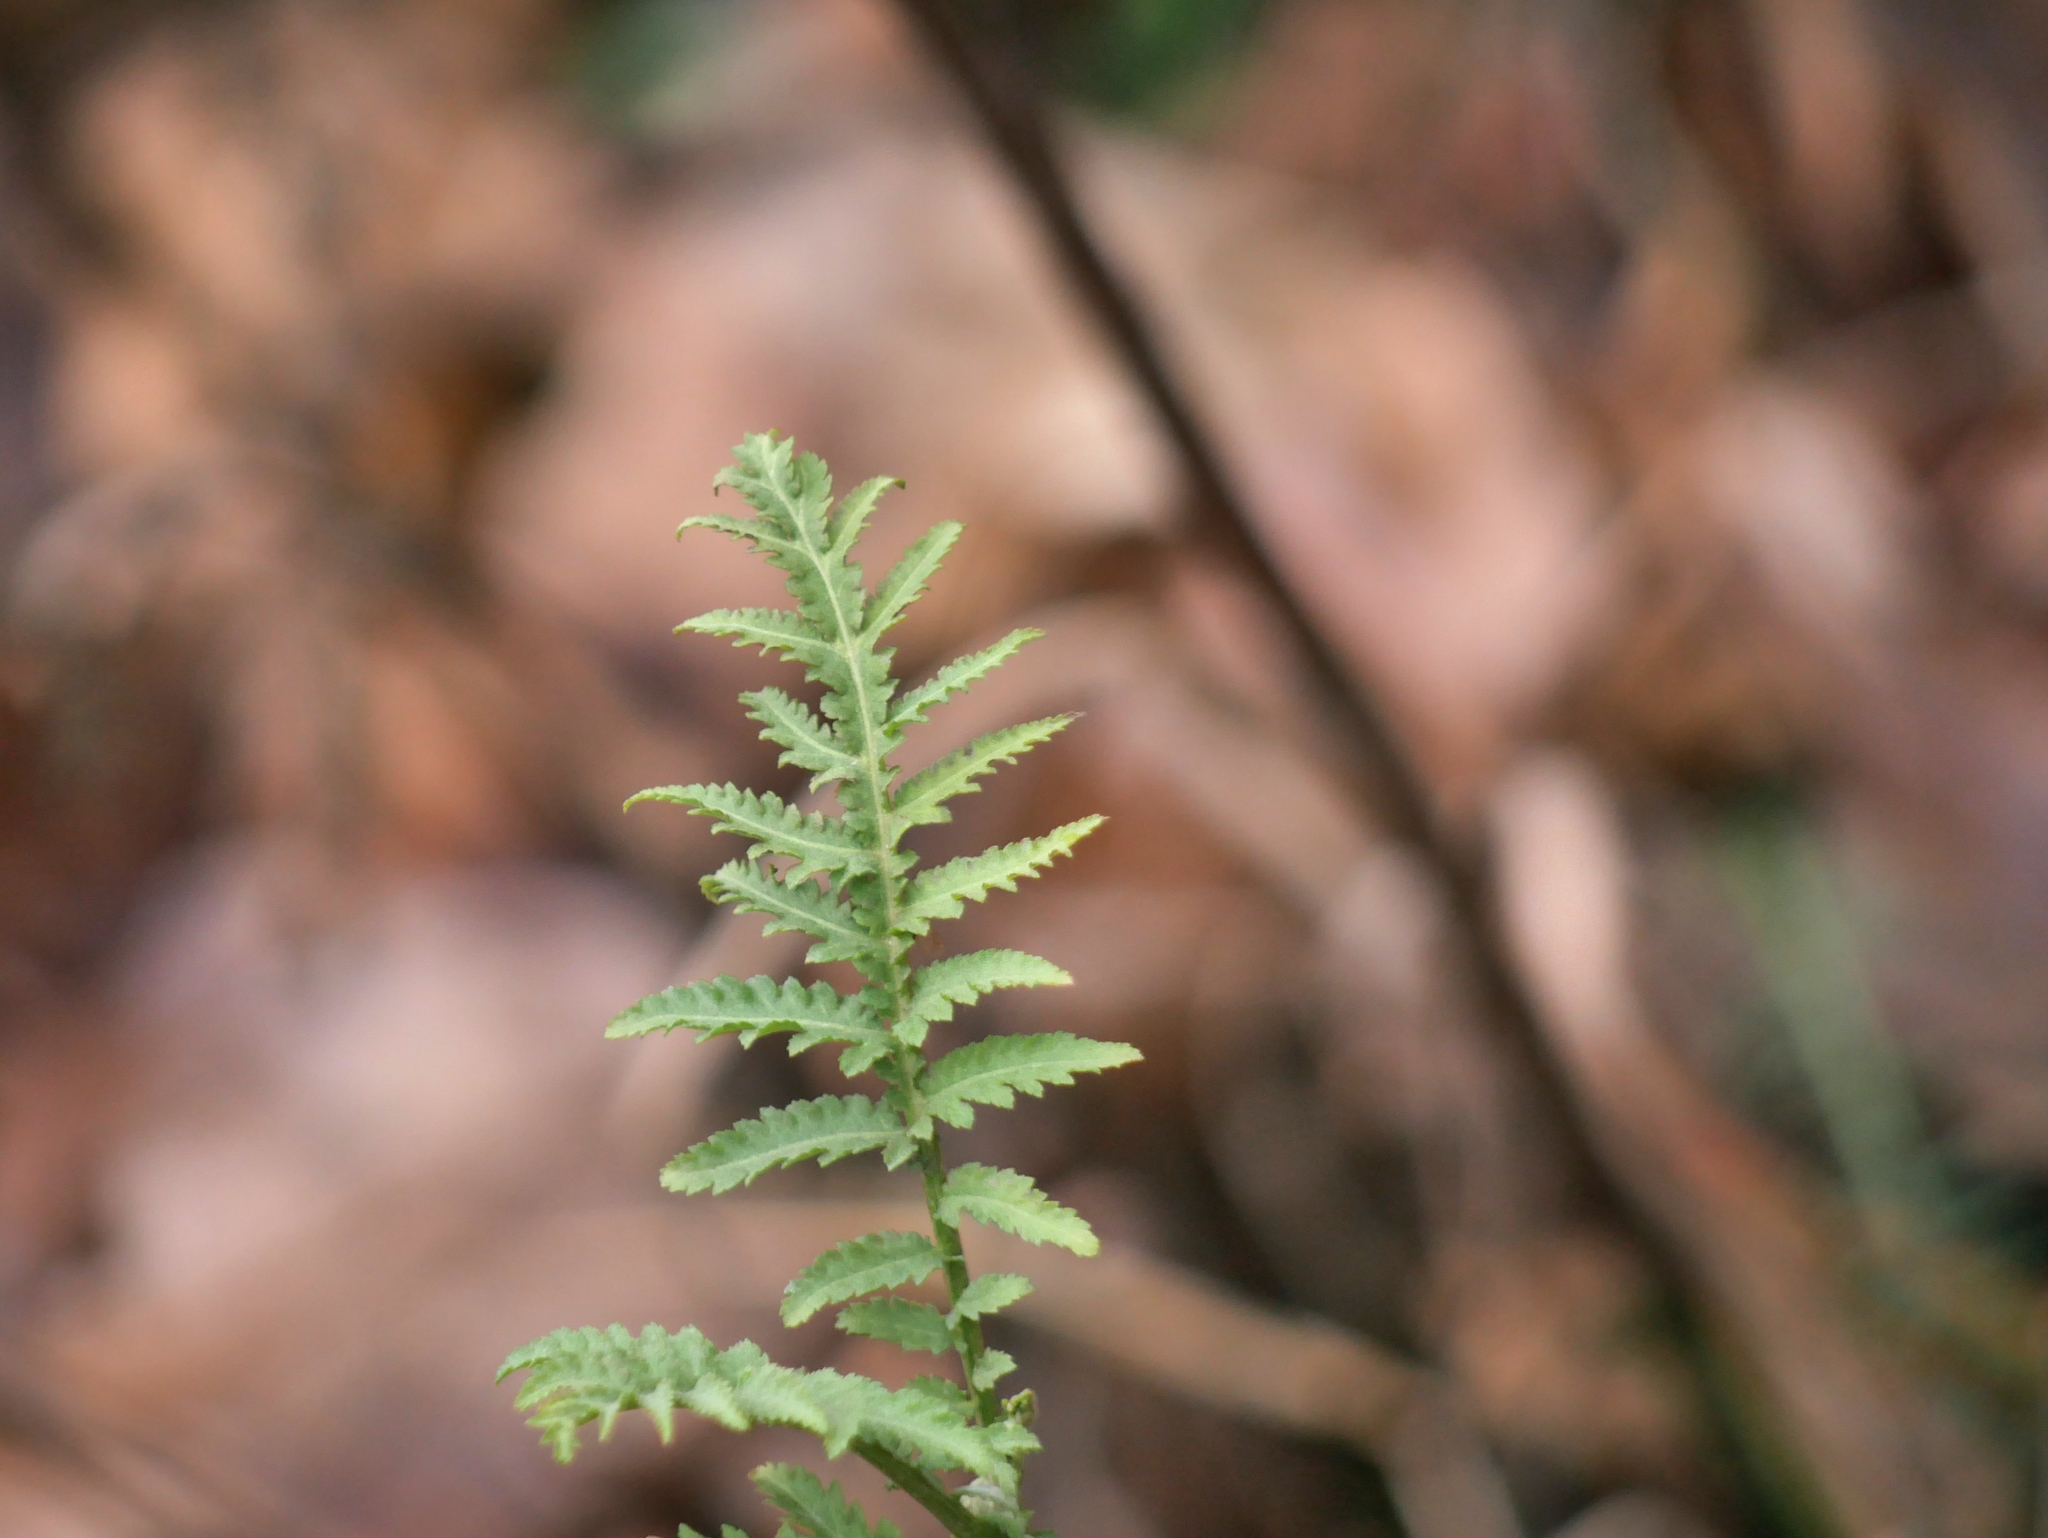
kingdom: Plantae
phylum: Tracheophyta
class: Magnoliopsida
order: Asterales
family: Asteraceae
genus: Tanacetum
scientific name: Tanacetum vulgare
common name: Common tansy
